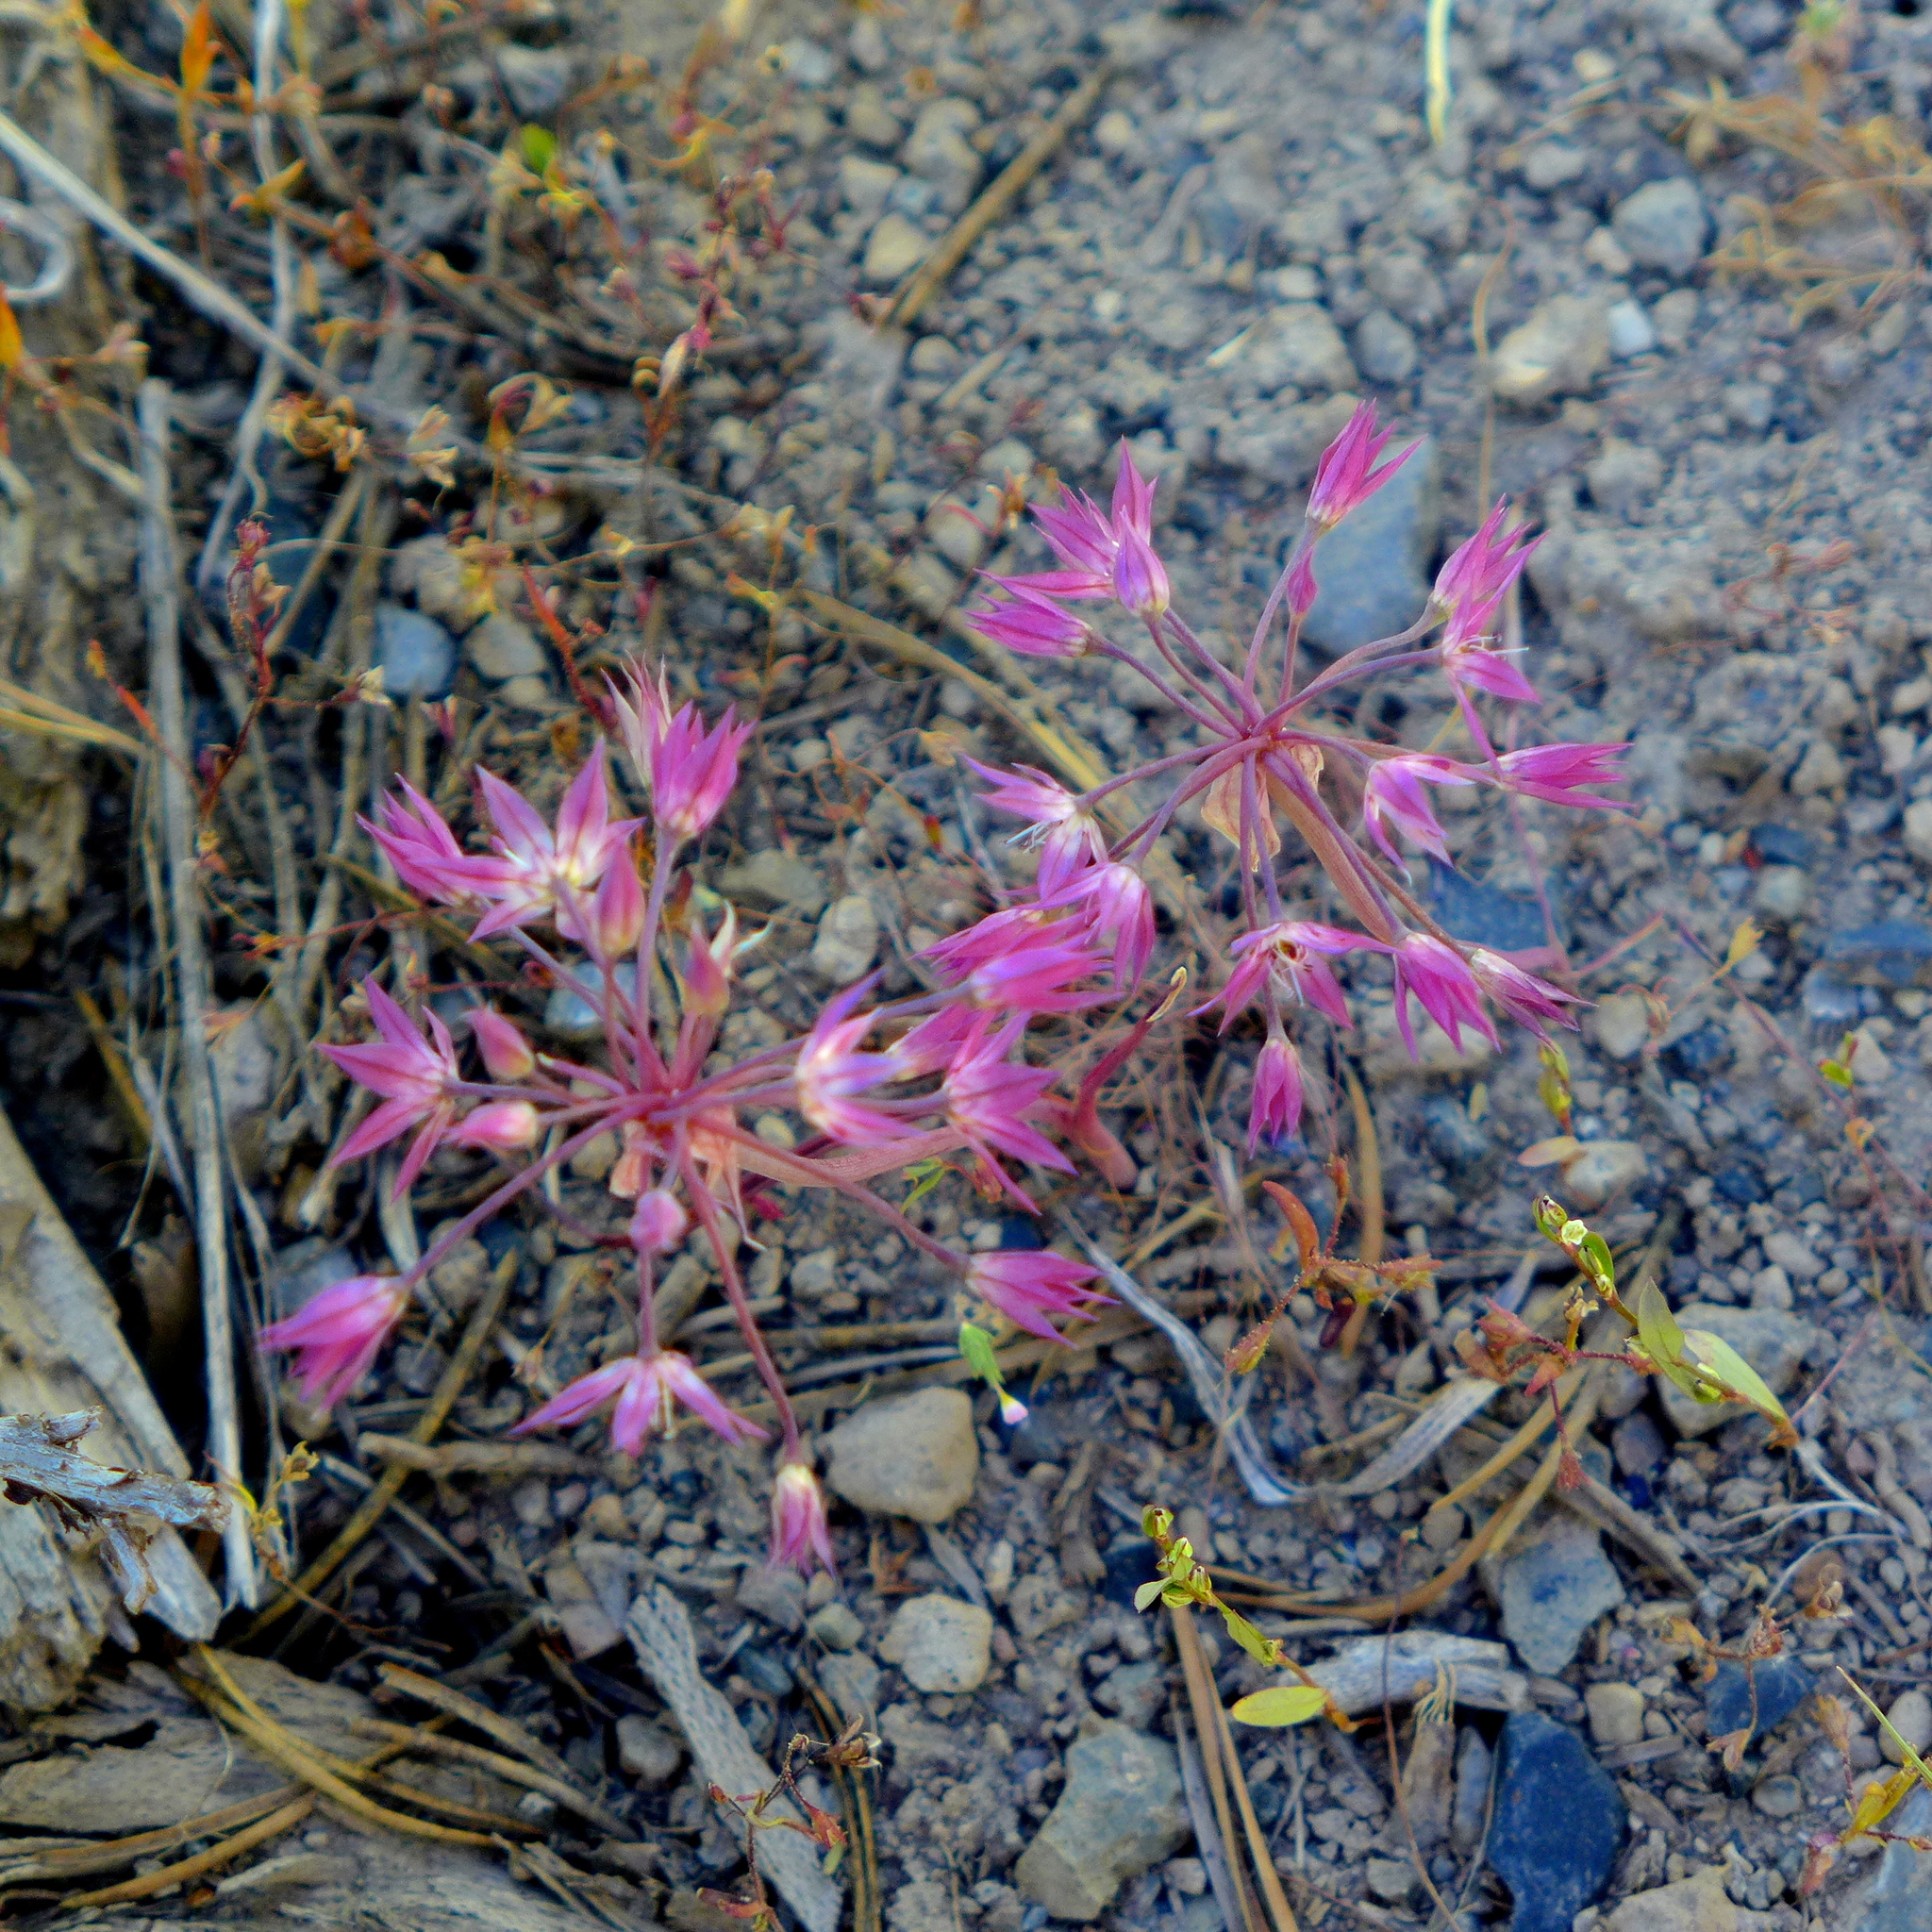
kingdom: Plantae
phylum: Tracheophyta
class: Liliopsida
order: Asparagales
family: Amaryllidaceae
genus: Allium
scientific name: Allium campanulatum
